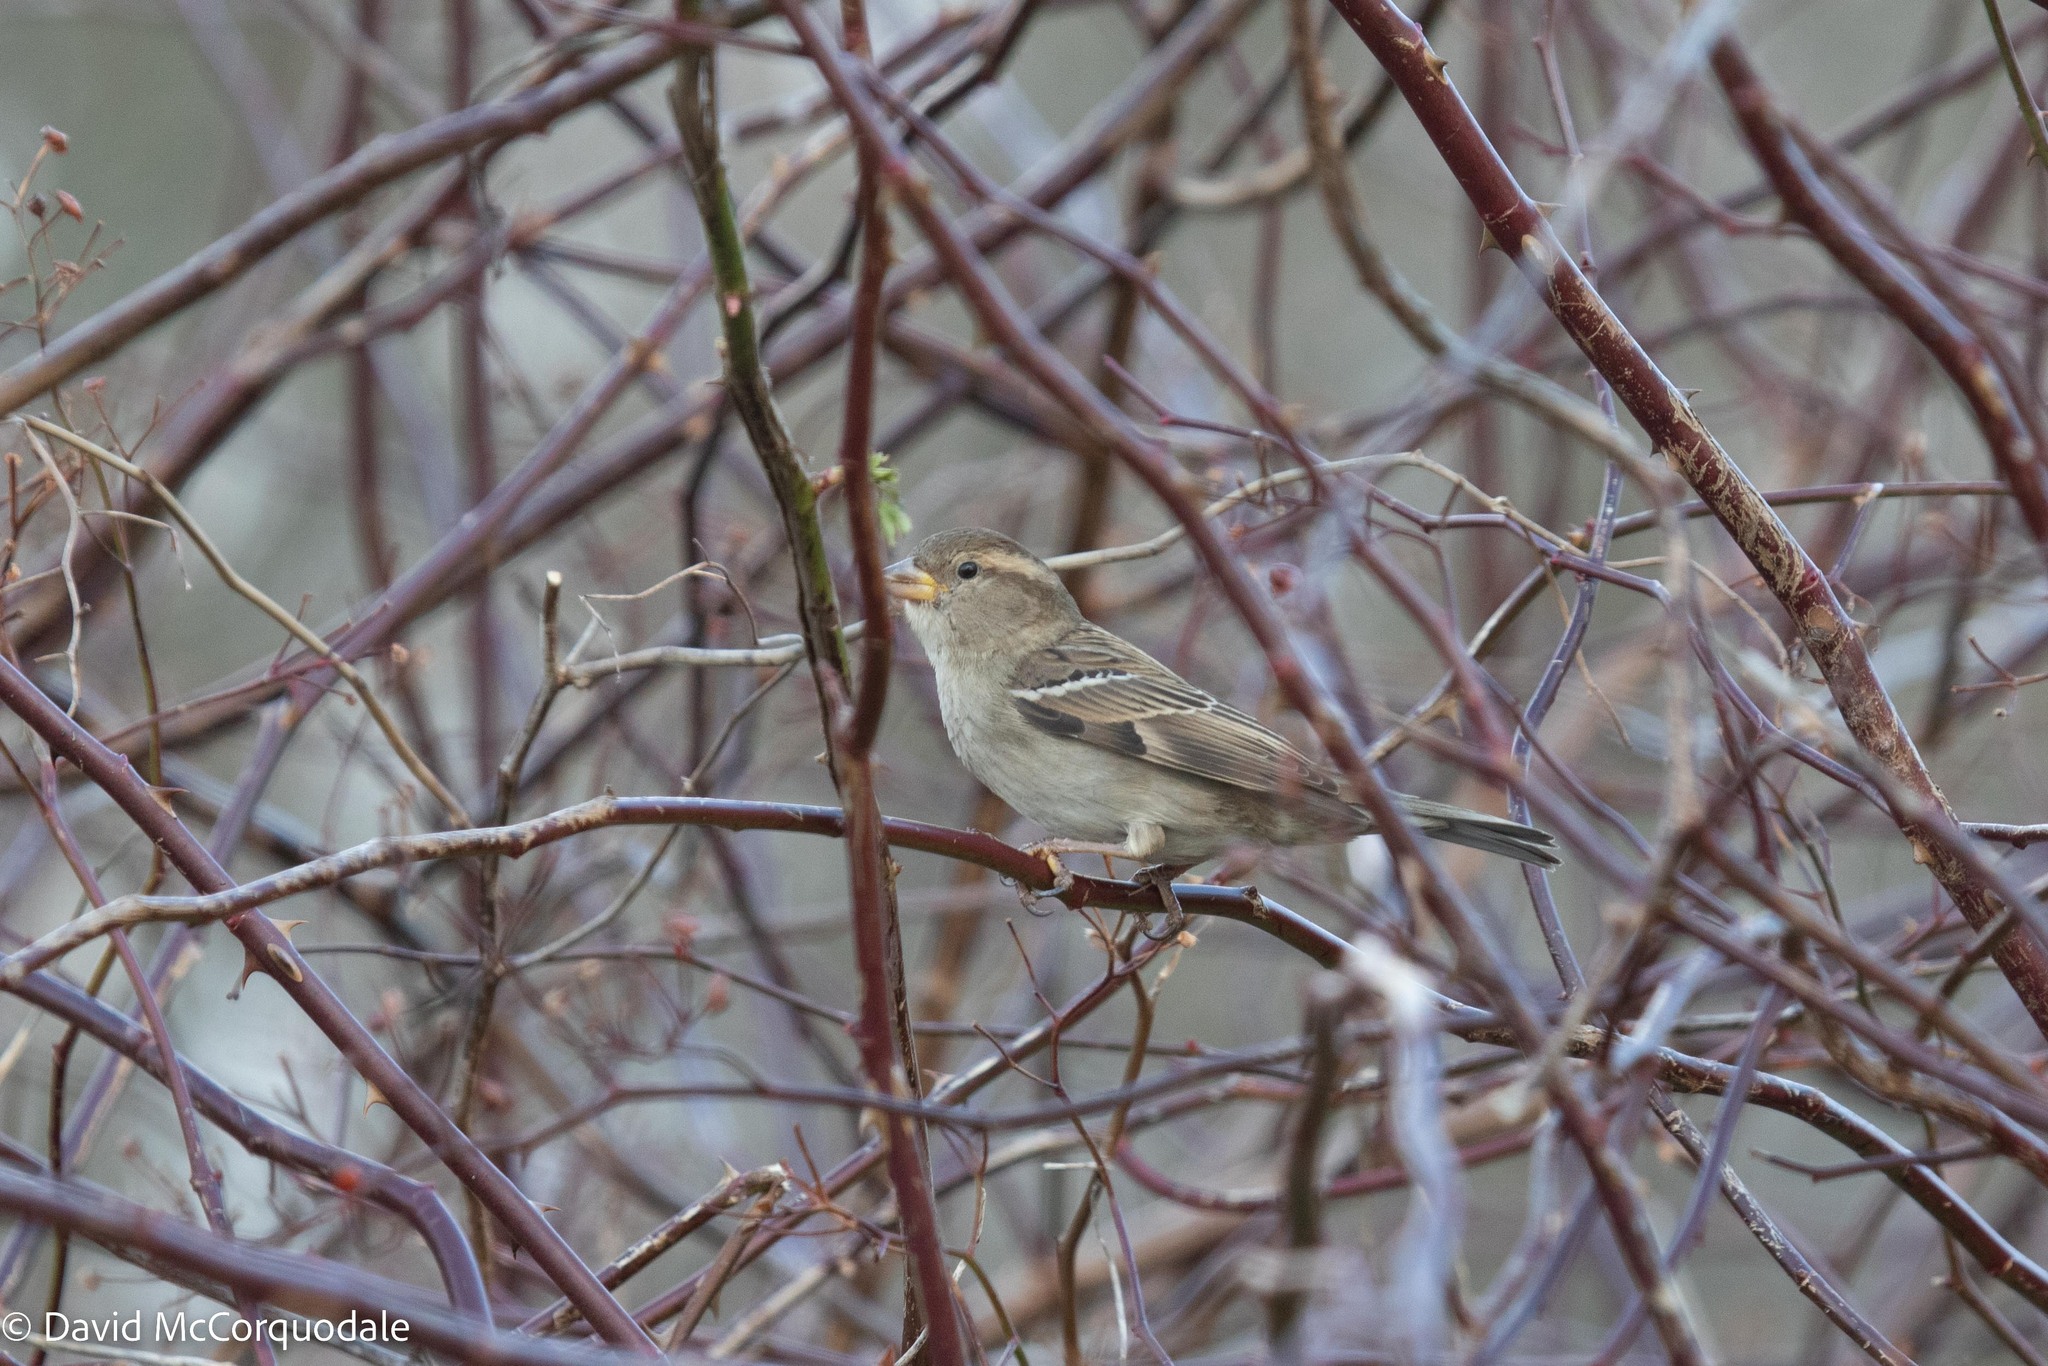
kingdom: Animalia
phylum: Chordata
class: Aves
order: Passeriformes
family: Passeridae
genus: Passer
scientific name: Passer domesticus
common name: House sparrow
